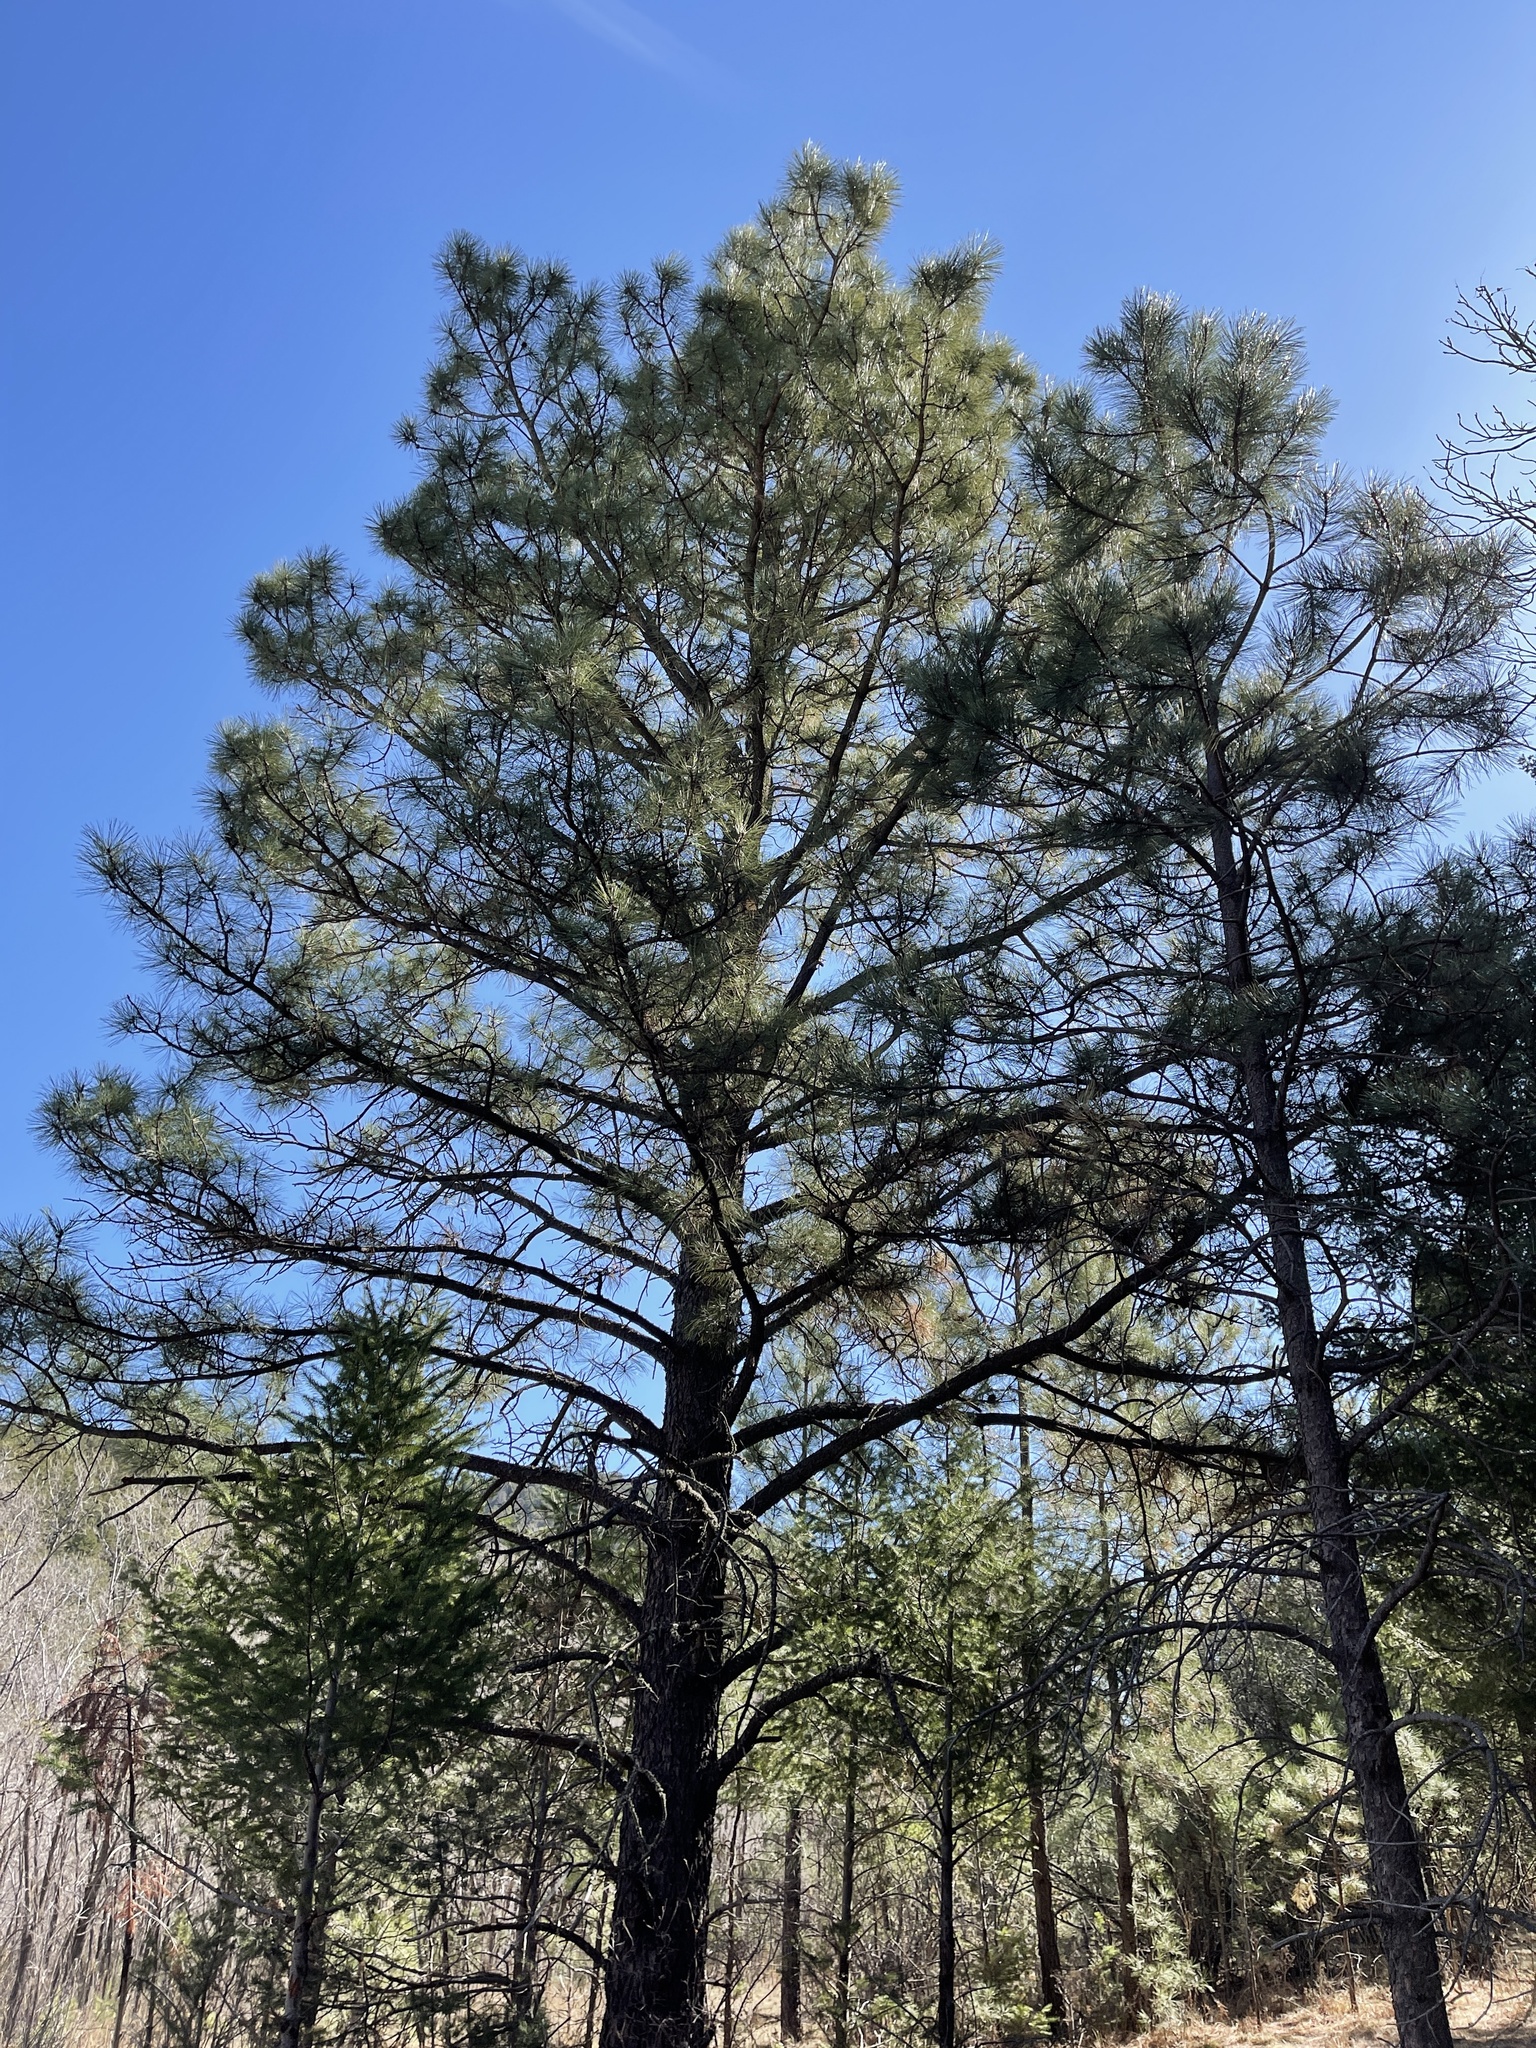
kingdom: Plantae
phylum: Tracheophyta
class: Pinopsida
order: Pinales
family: Pinaceae
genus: Pinus
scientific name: Pinus ponderosa
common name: Western yellow-pine
